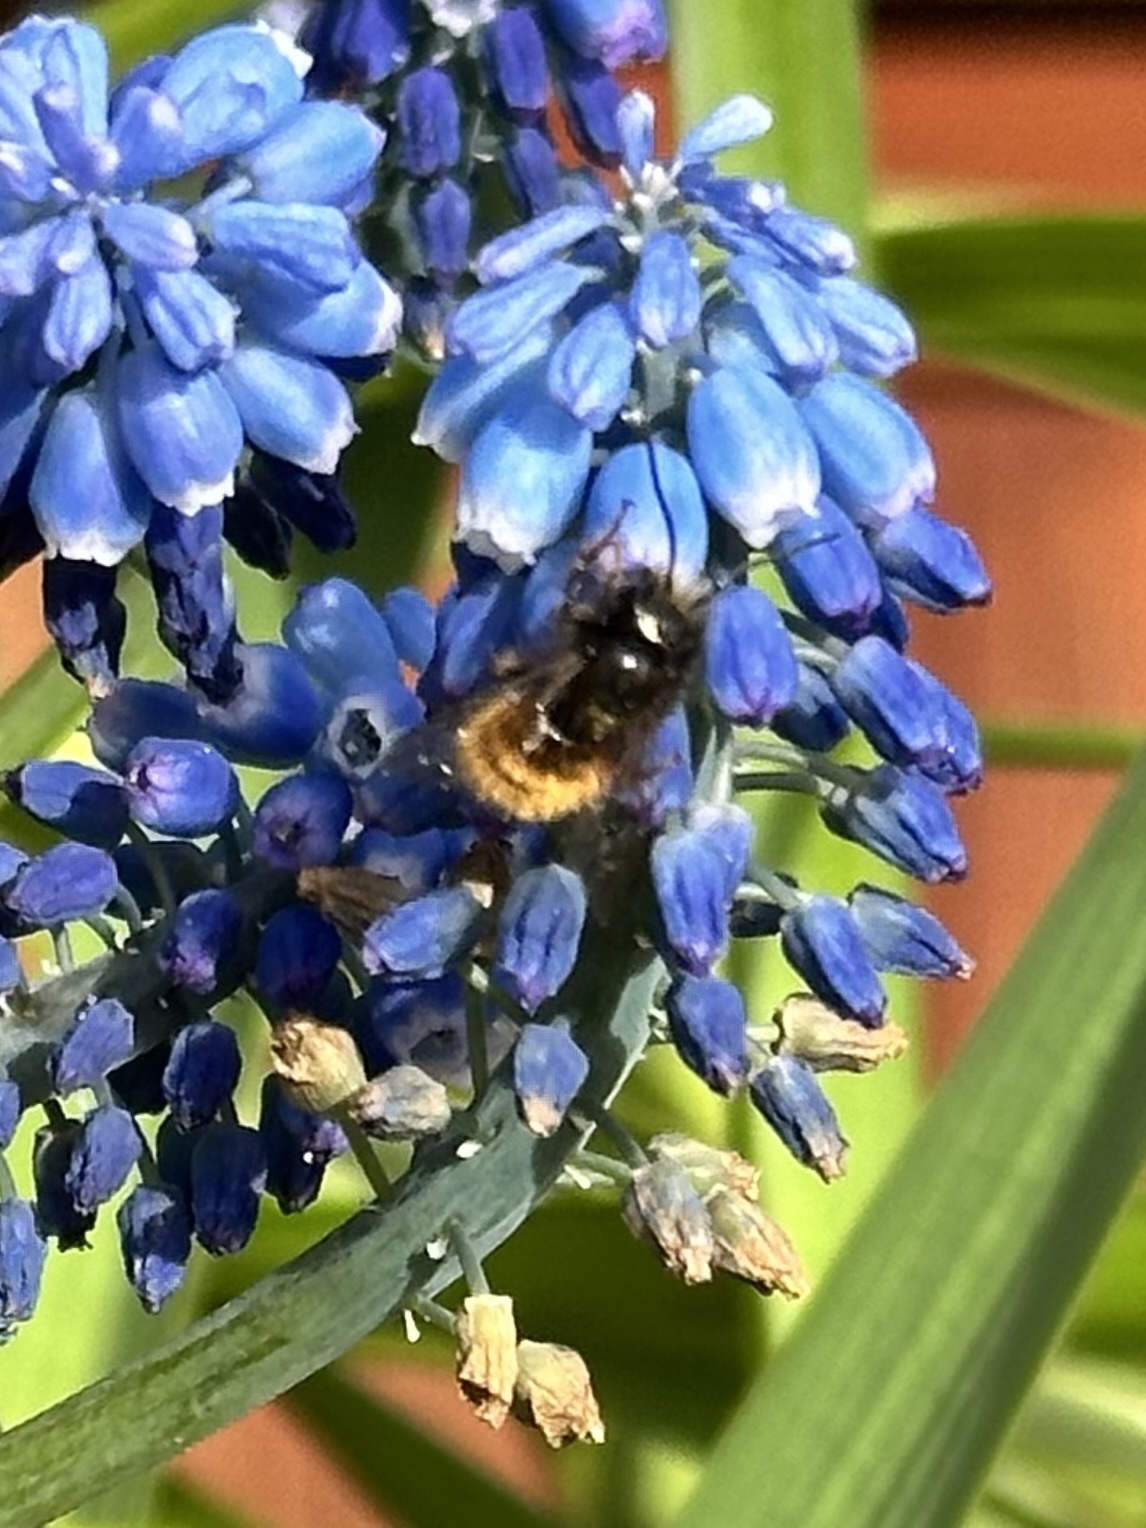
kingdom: Animalia
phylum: Arthropoda
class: Insecta
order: Hymenoptera
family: Megachilidae
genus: Osmia
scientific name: Osmia cornuta
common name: Mason bee
